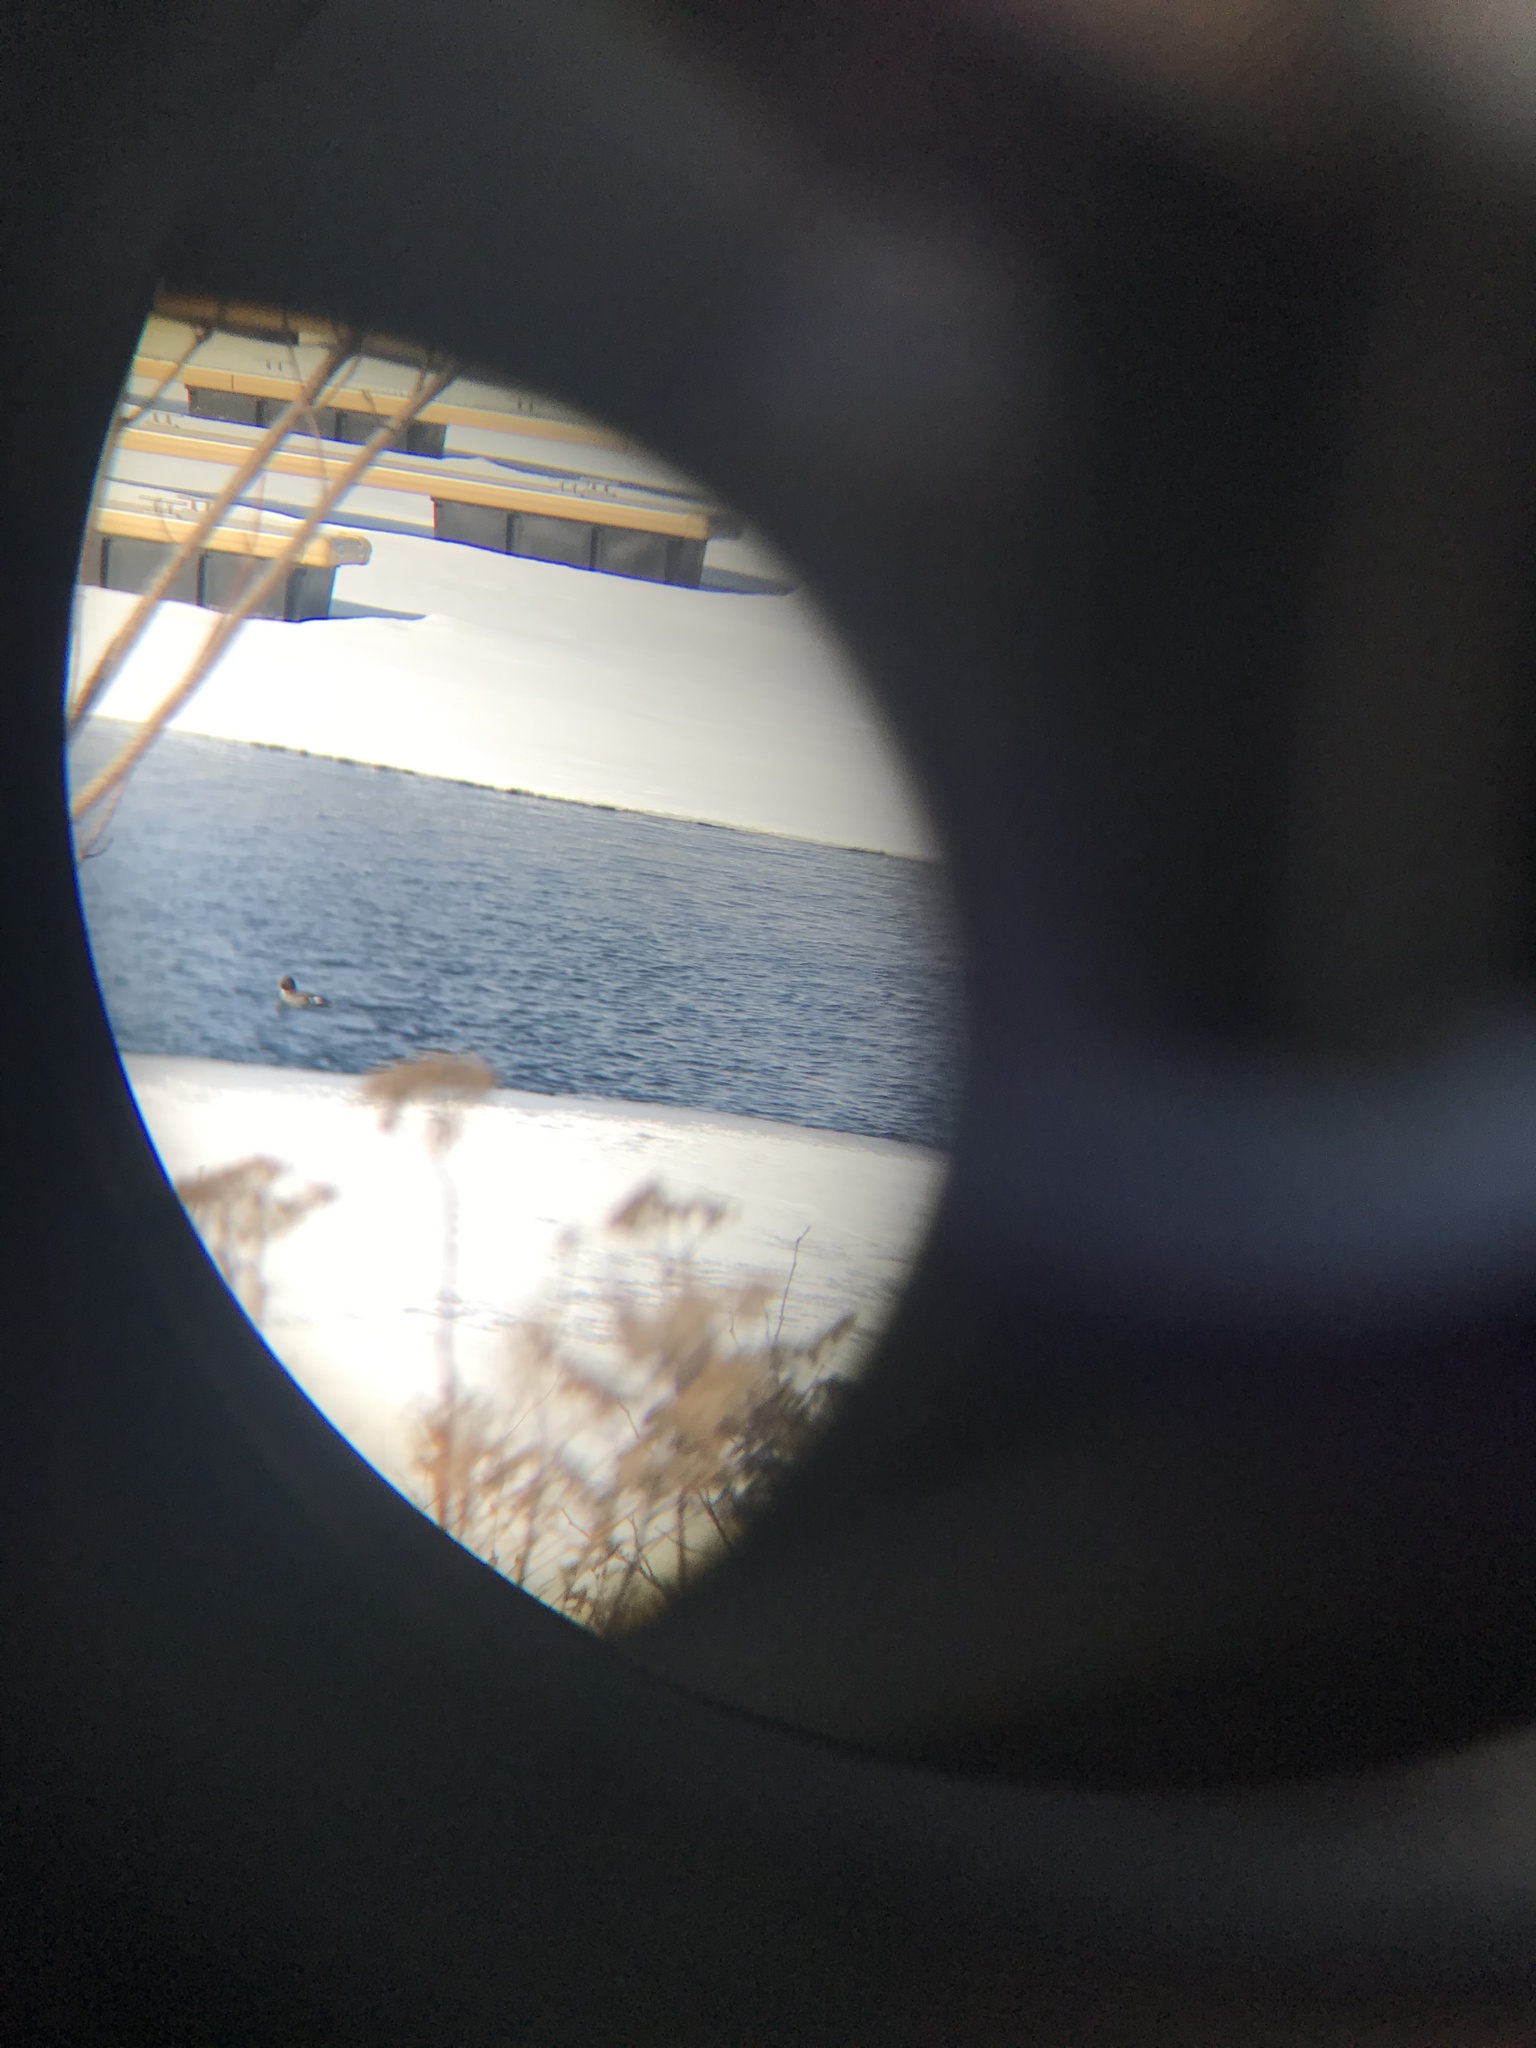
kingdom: Animalia
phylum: Chordata
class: Aves
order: Anseriformes
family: Anatidae
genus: Bucephala
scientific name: Bucephala clangula
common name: Common goldeneye
